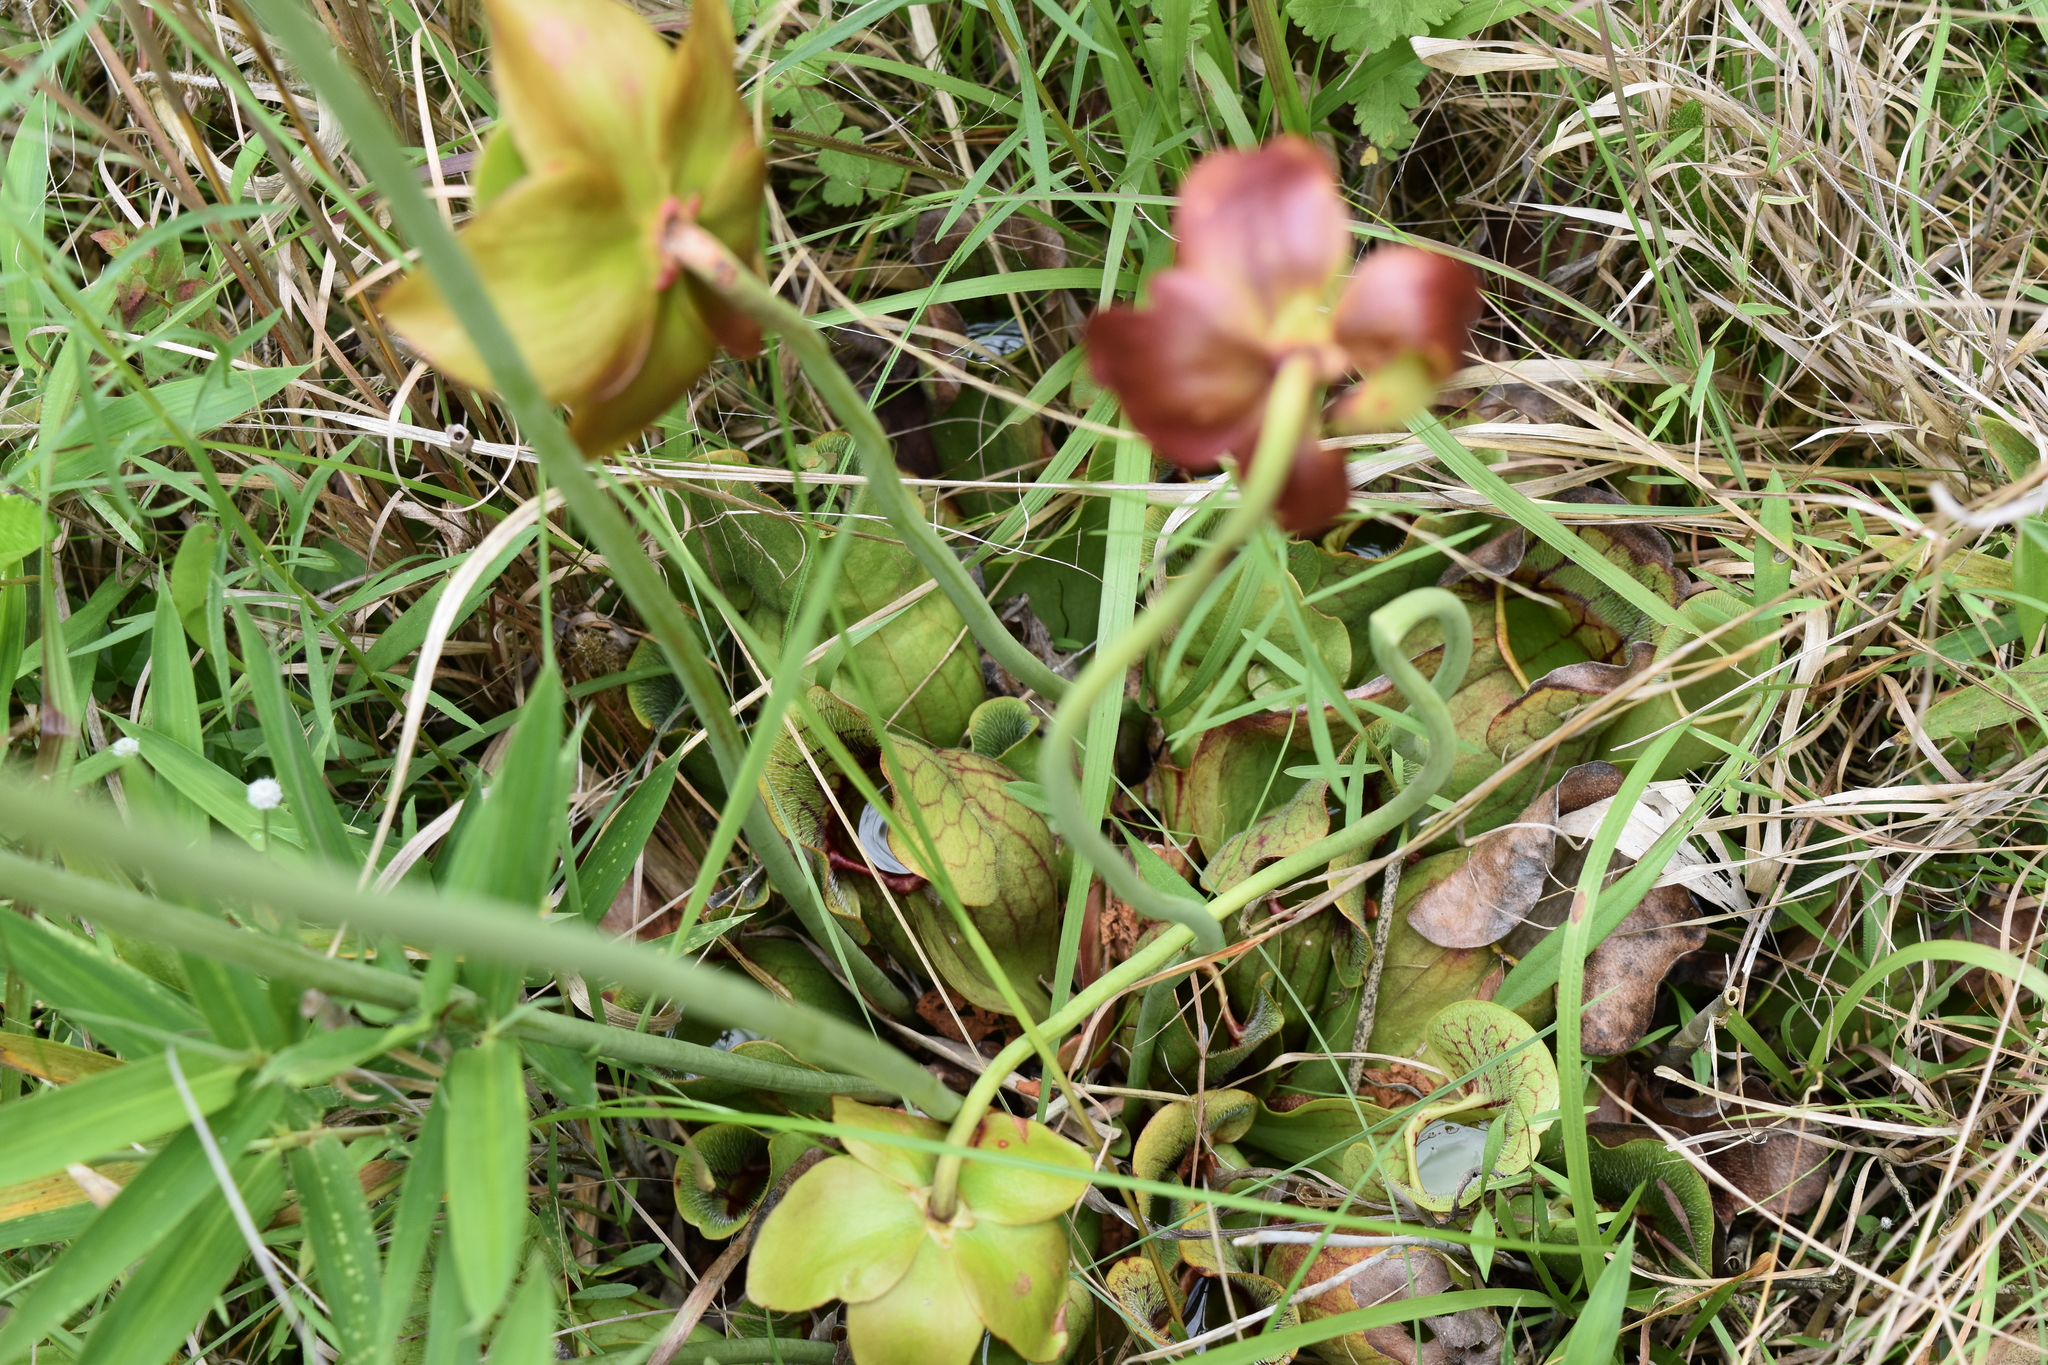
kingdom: Plantae
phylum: Tracheophyta
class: Magnoliopsida
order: Ericales
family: Sarraceniaceae
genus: Sarracenia
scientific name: Sarracenia purpurea
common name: Pitcherplant
